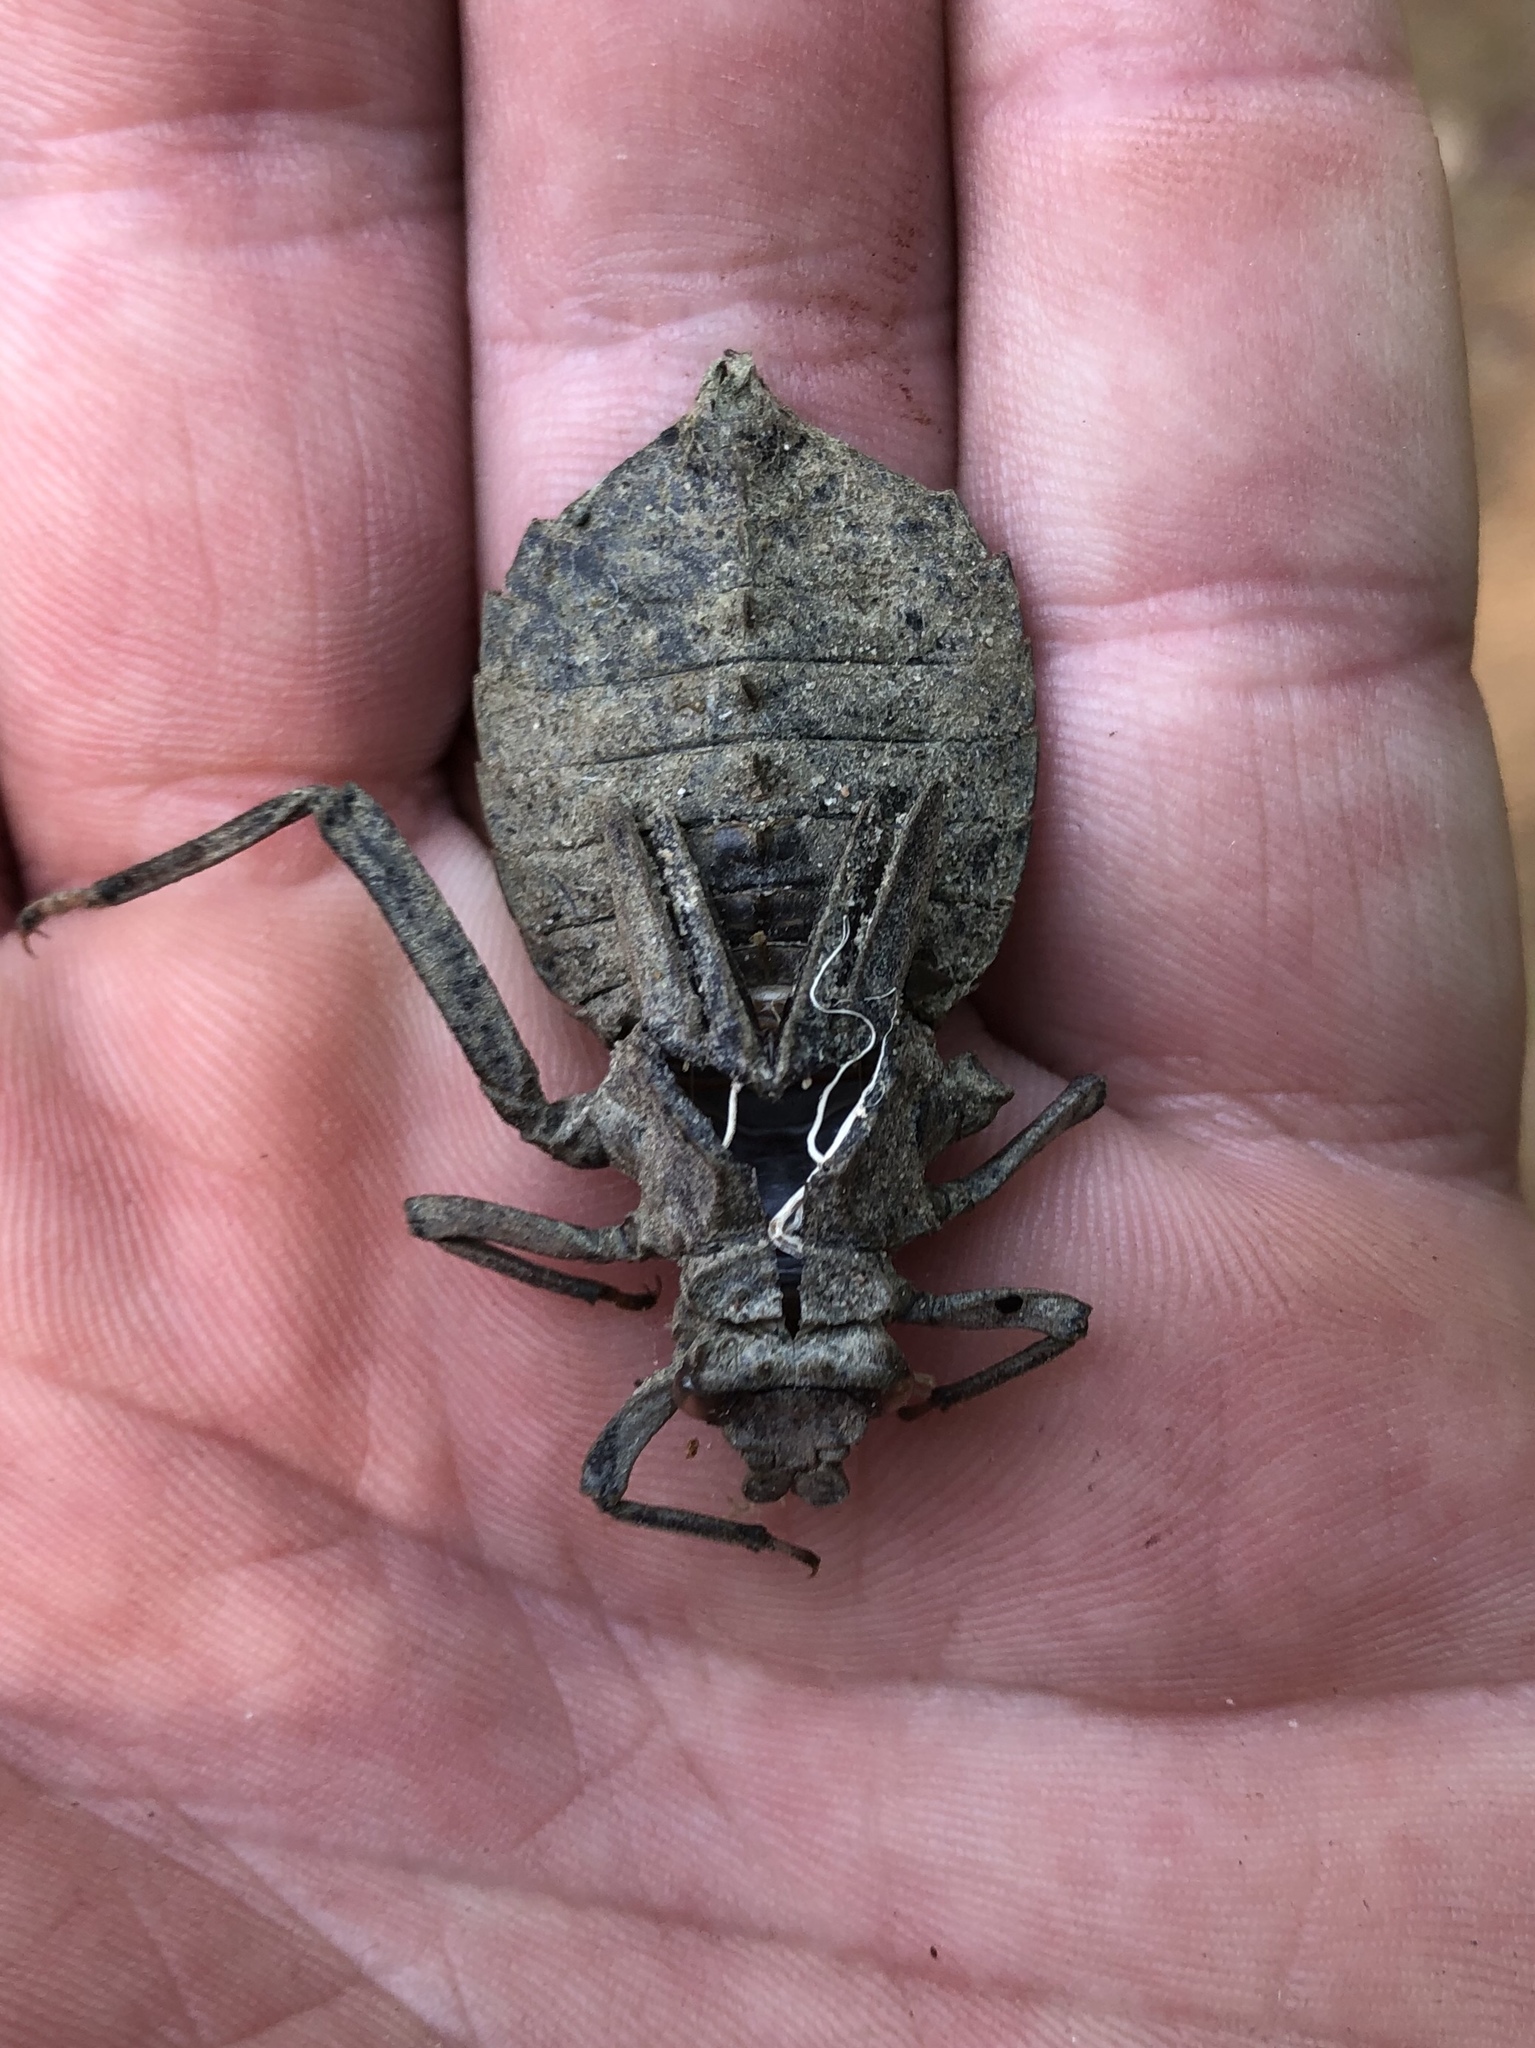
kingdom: Animalia
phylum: Arthropoda
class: Insecta
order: Odonata
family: Gomphidae
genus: Hagenius
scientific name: Hagenius brevistylus
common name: Dragonhunter
